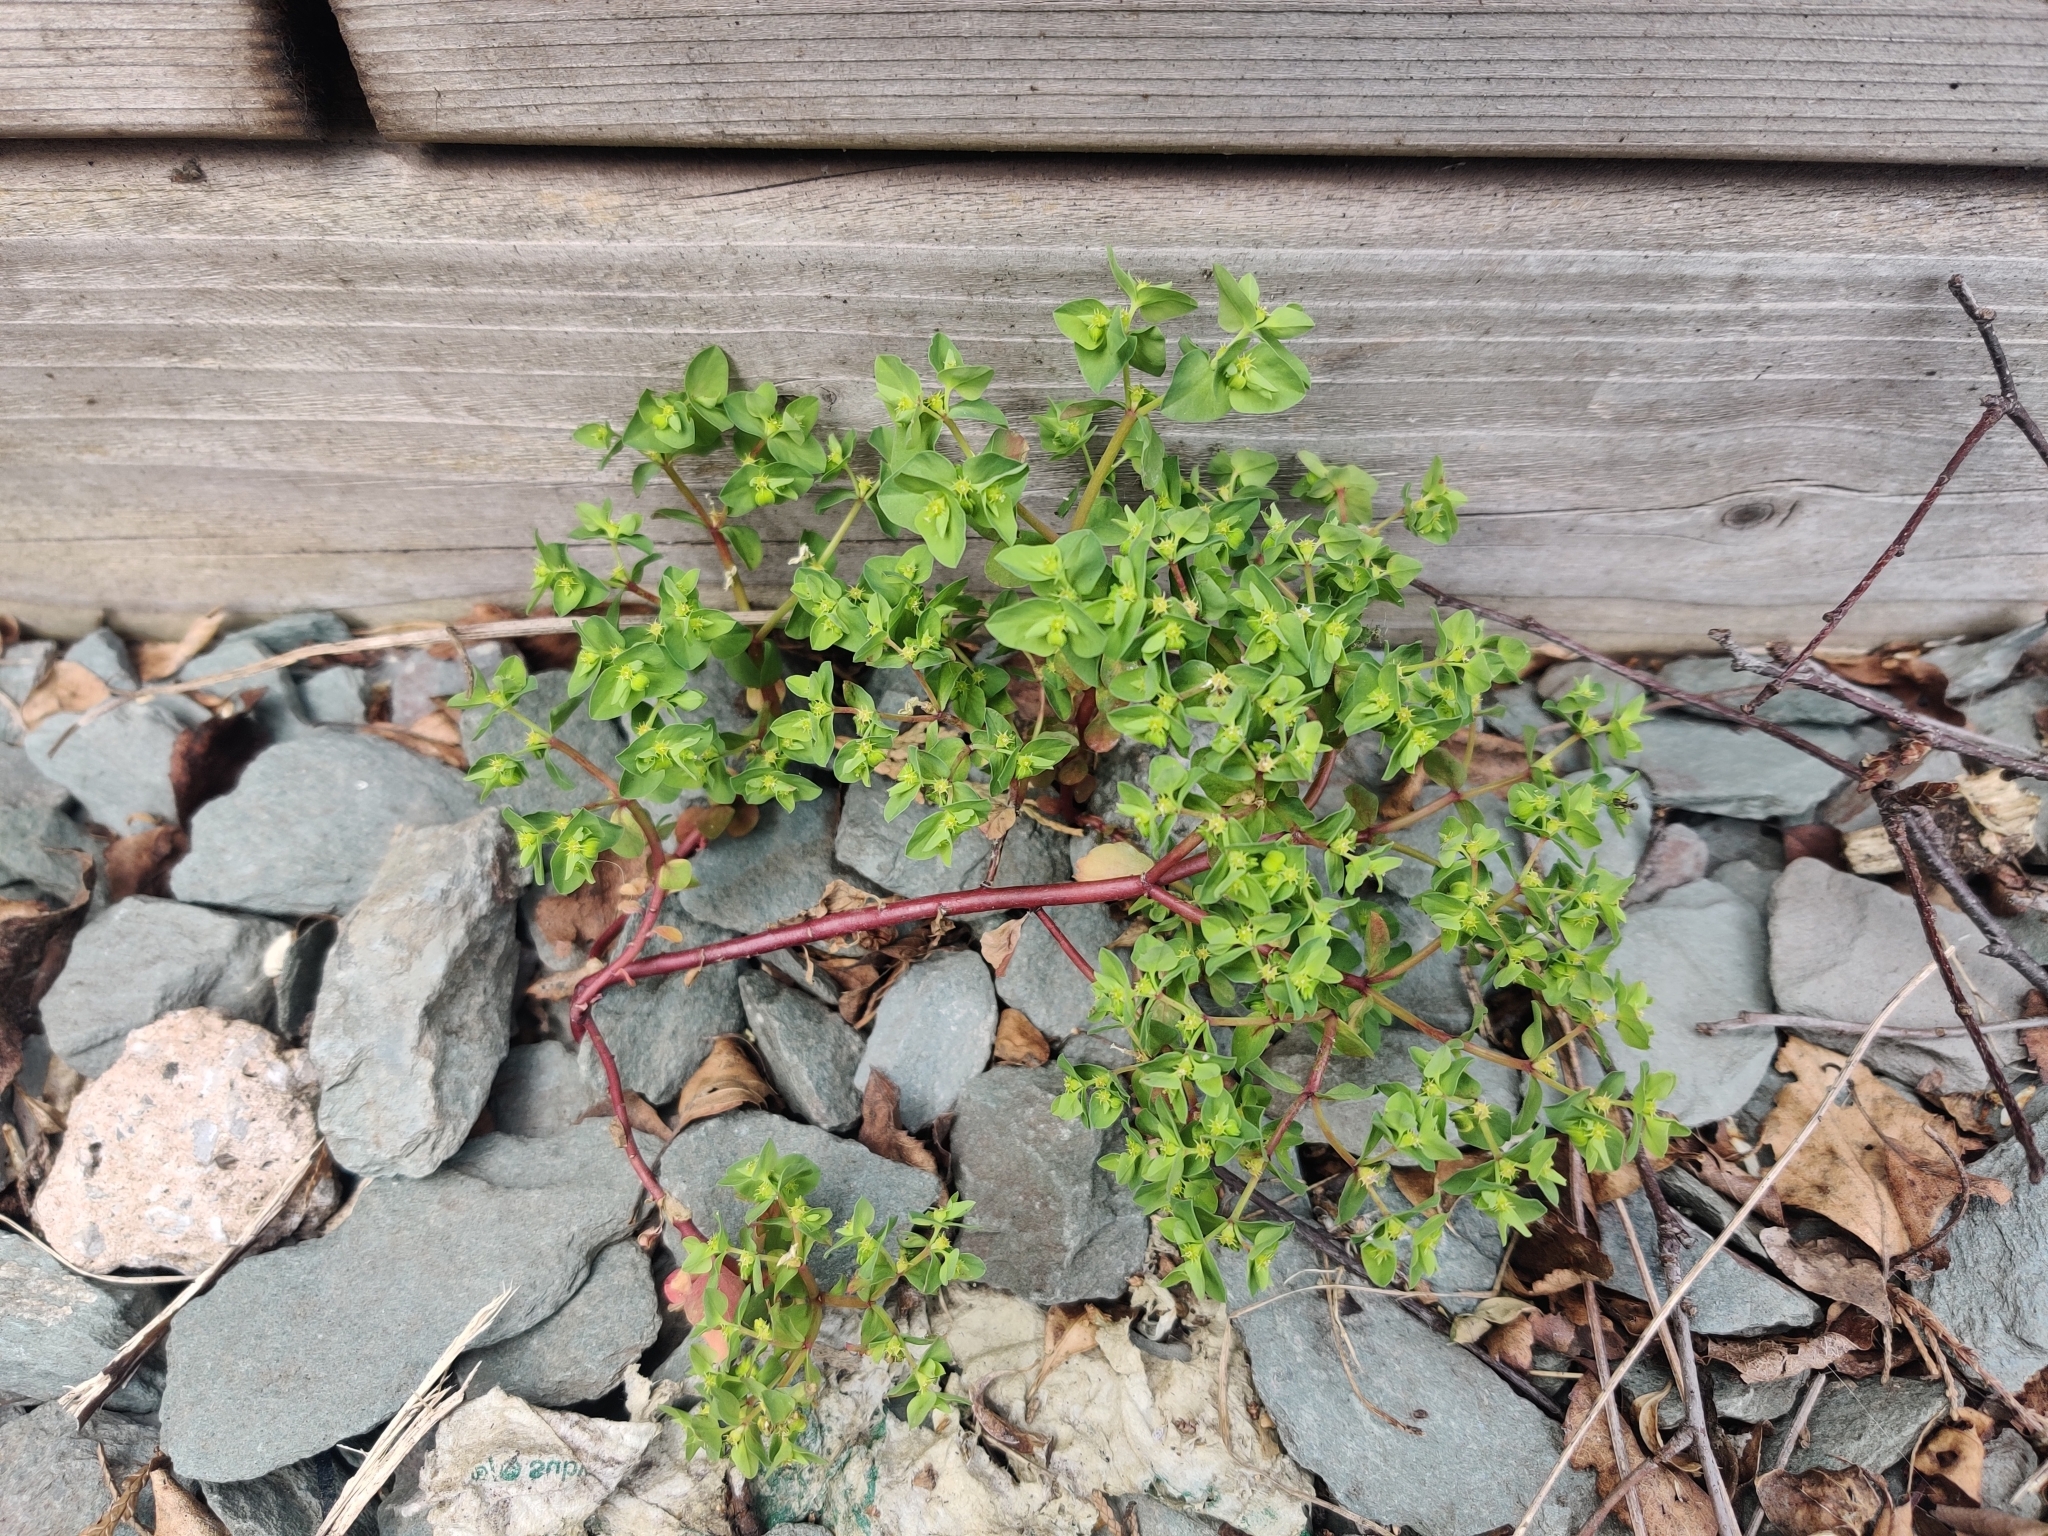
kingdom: Plantae
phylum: Tracheophyta
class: Magnoliopsida
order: Malpighiales
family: Euphorbiaceae
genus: Euphorbia
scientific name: Euphorbia peplus
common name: Petty spurge
